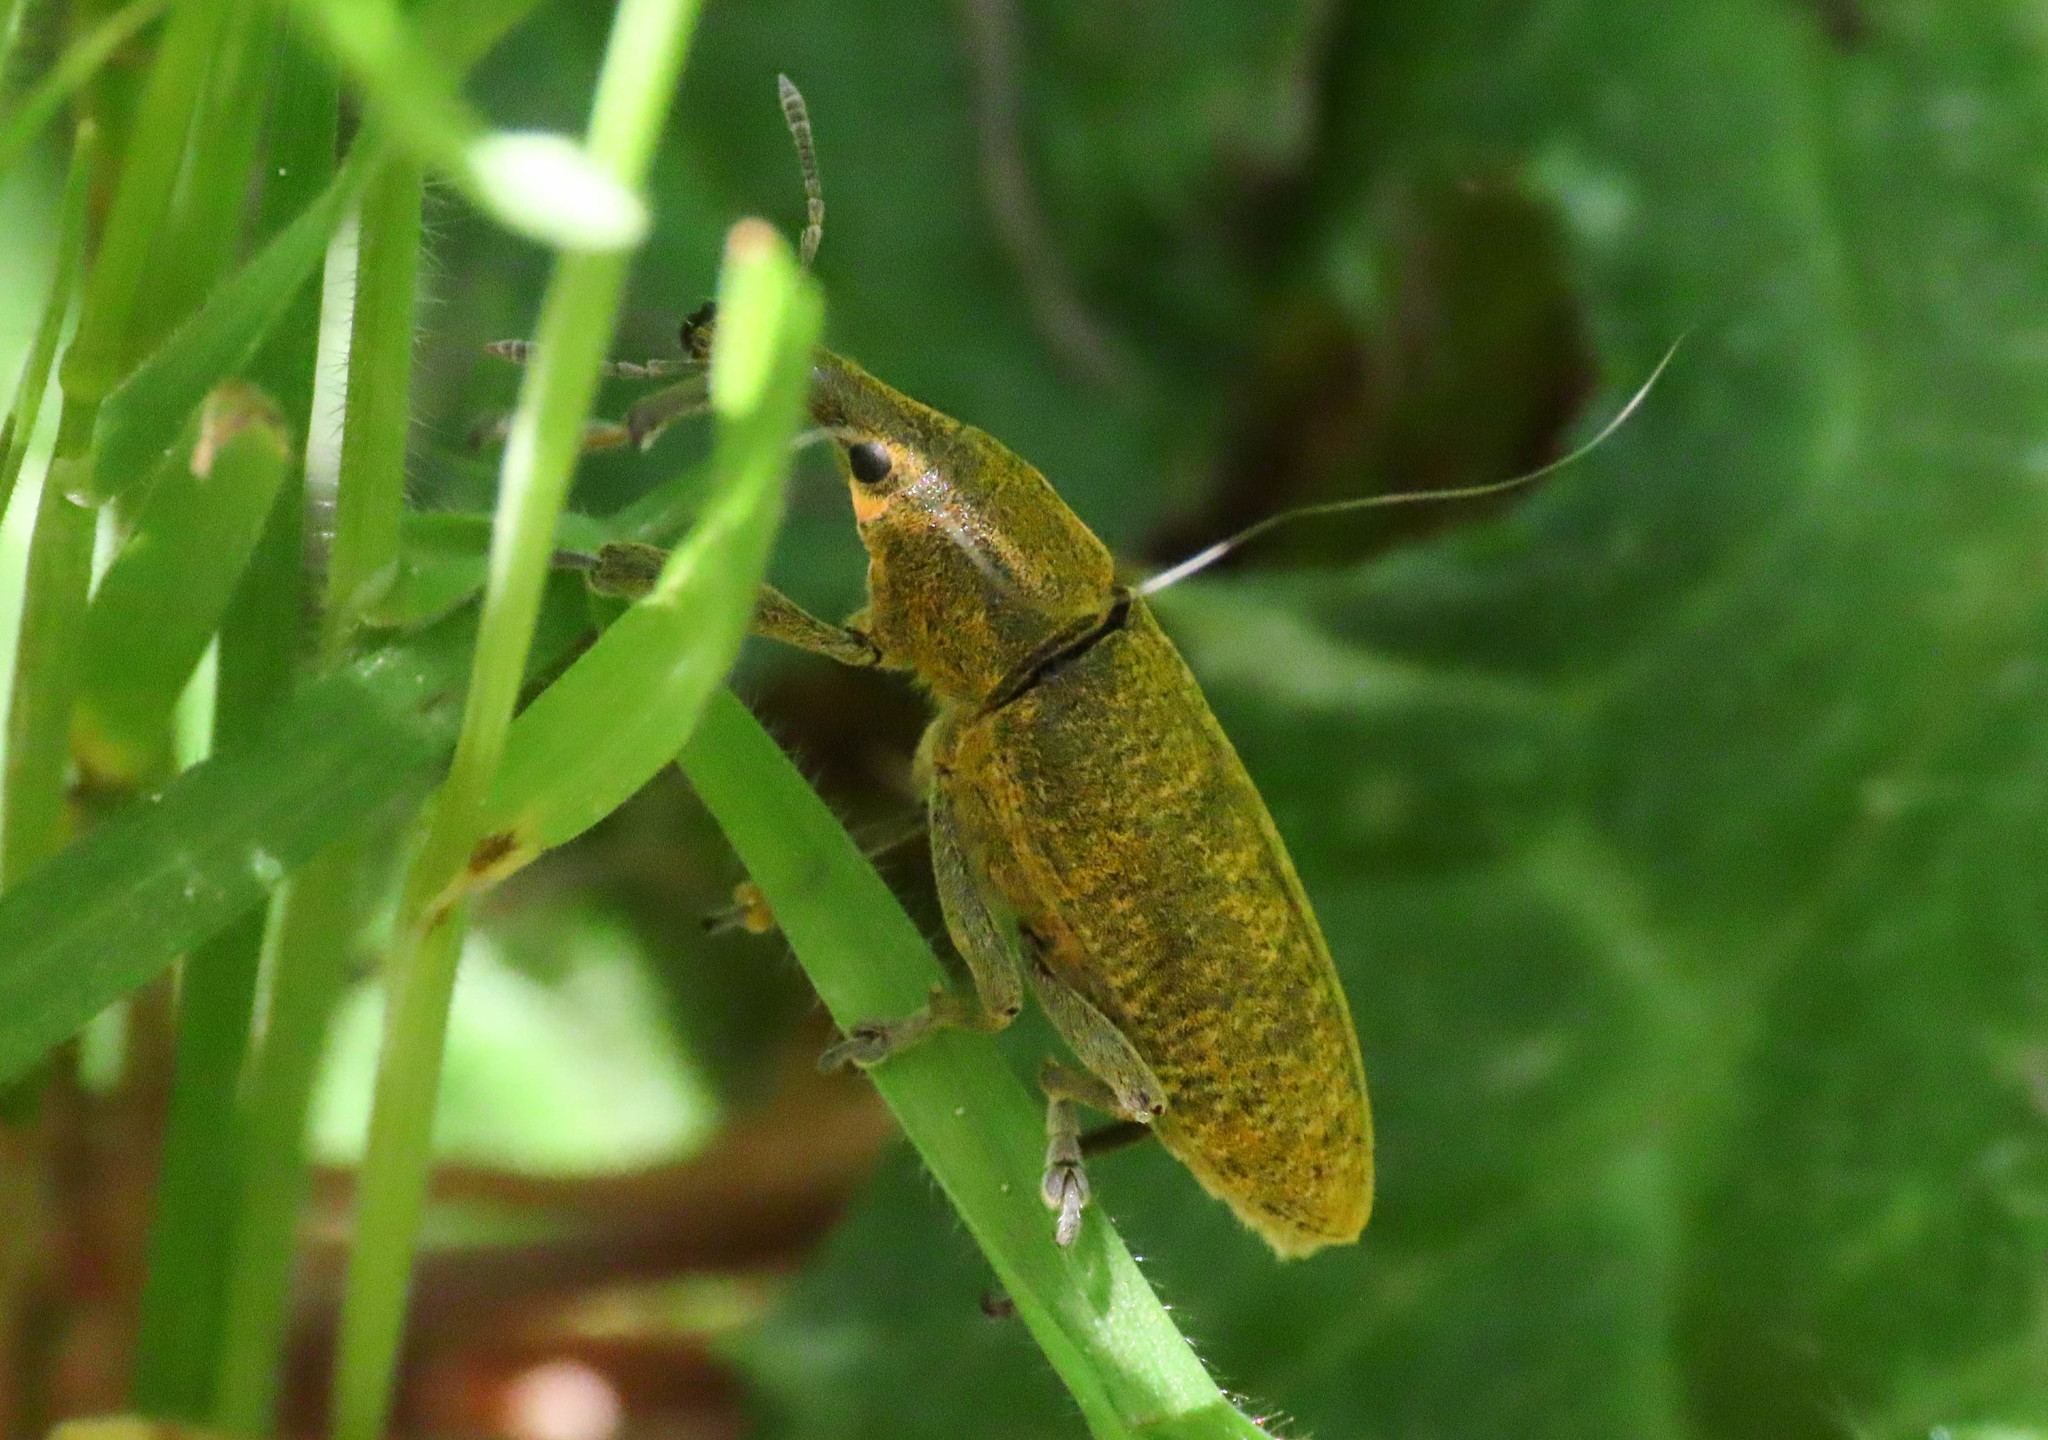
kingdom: Animalia
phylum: Arthropoda
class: Insecta
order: Coleoptera
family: Curculionidae
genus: Lixus
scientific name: Lixus pulverulentus
